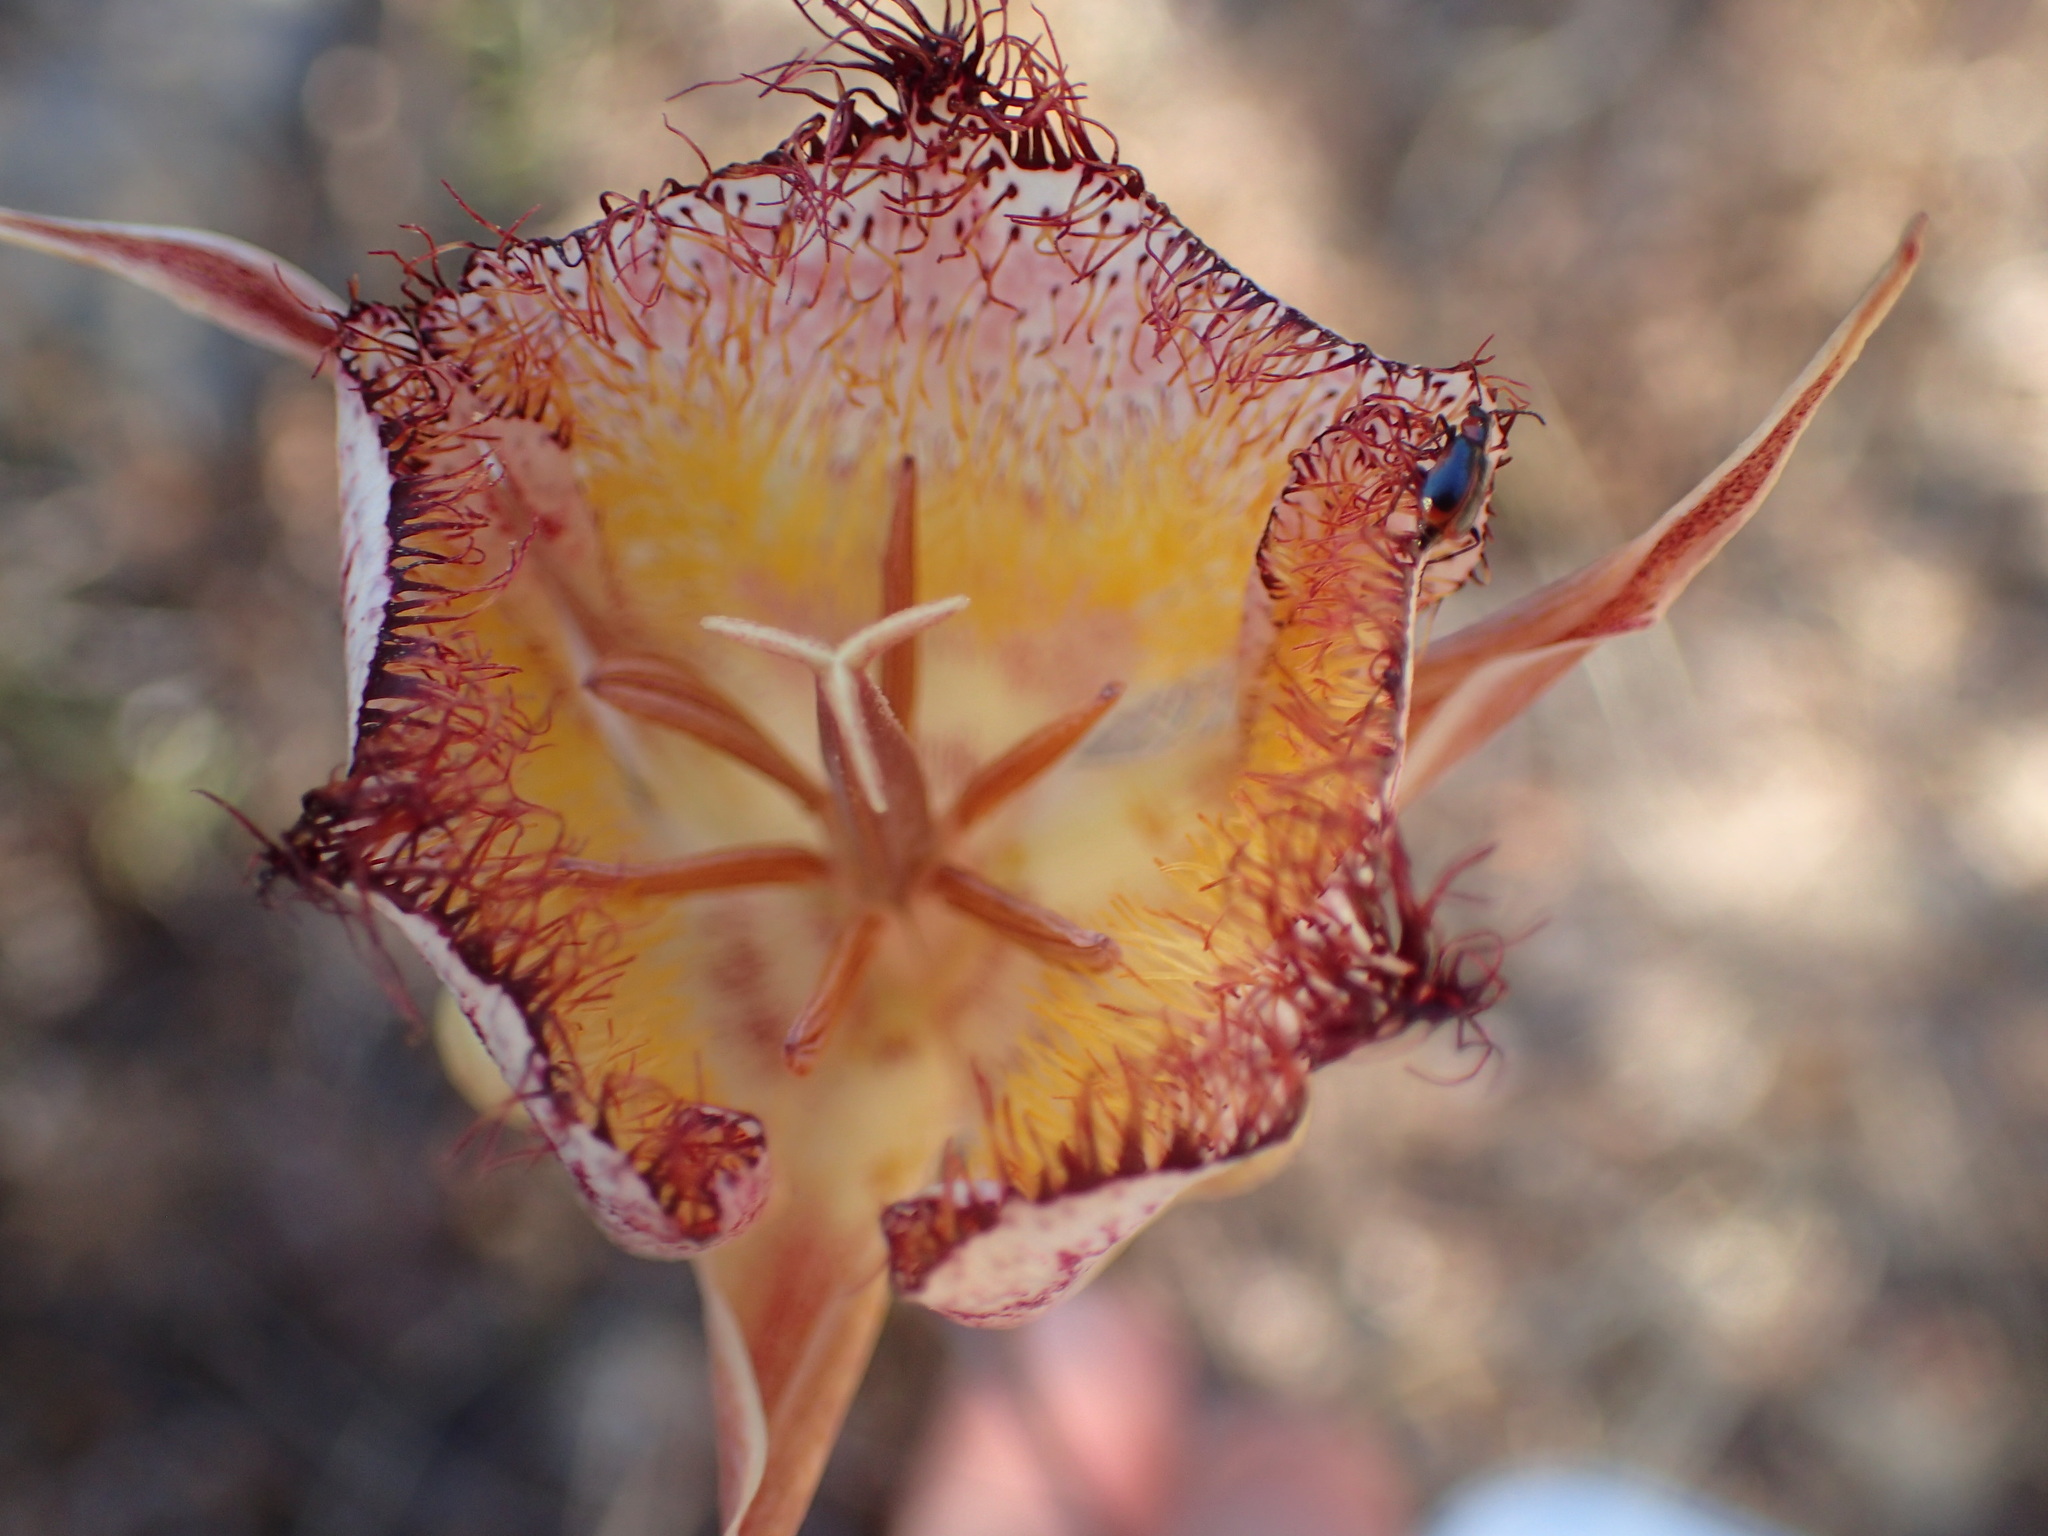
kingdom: Plantae
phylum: Tracheophyta
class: Liliopsida
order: Liliales
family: Liliaceae
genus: Calochortus
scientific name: Calochortus fimbriatus
